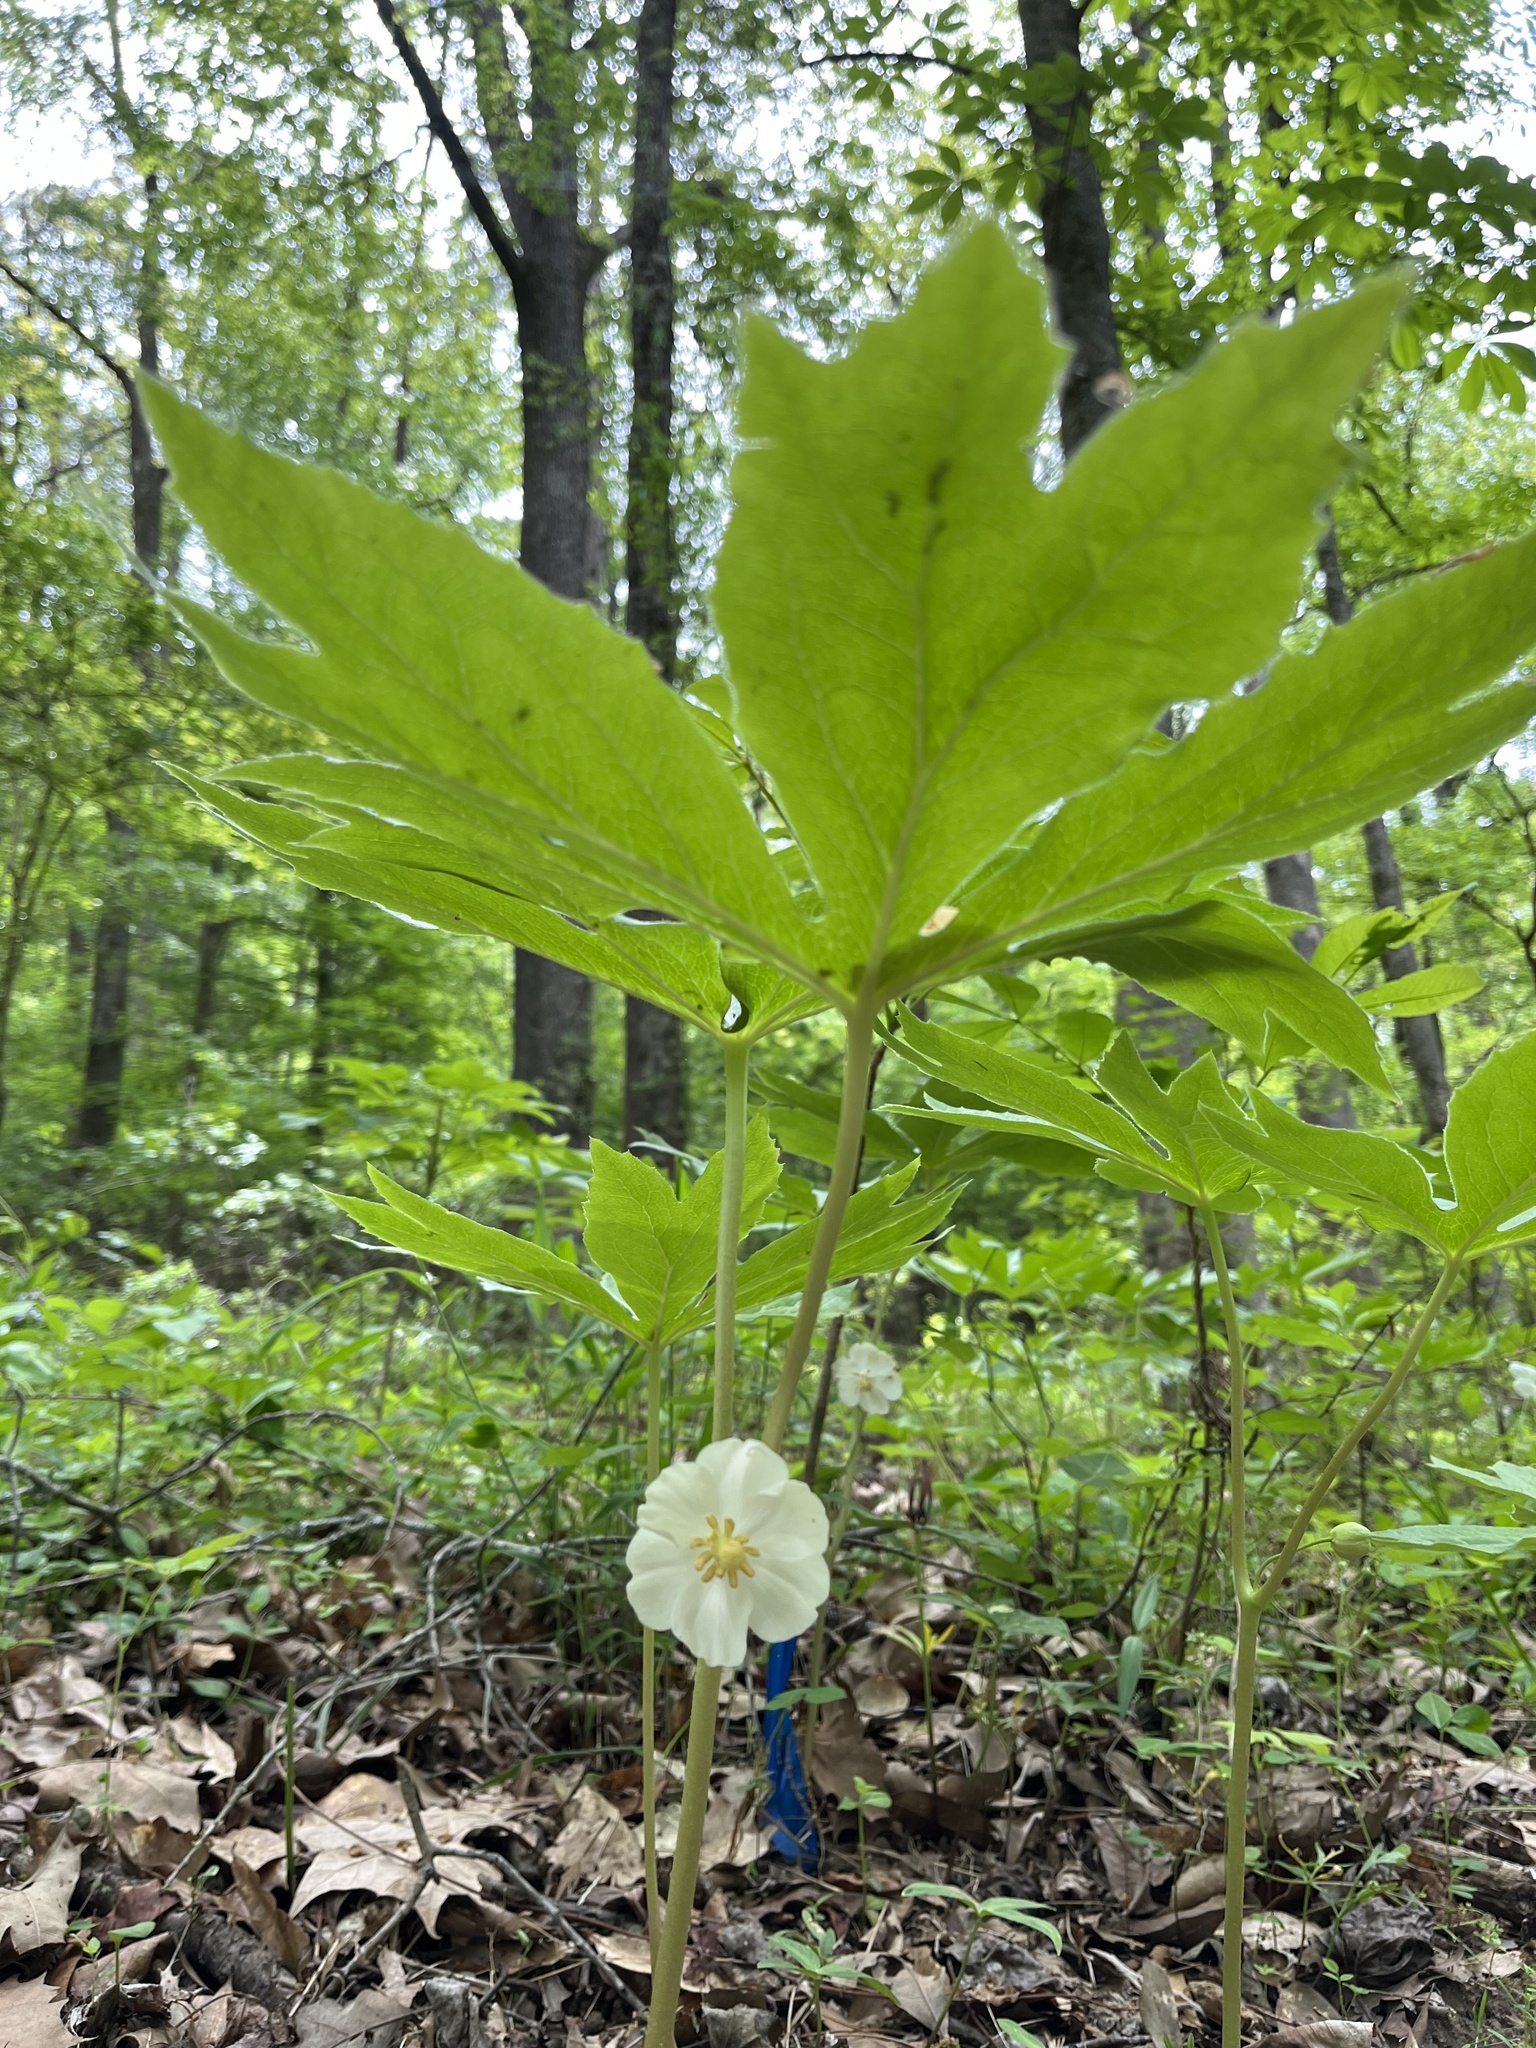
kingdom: Plantae
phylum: Tracheophyta
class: Magnoliopsida
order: Ranunculales
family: Berberidaceae
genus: Podophyllum
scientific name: Podophyllum peltatum
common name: Wild mandrake
